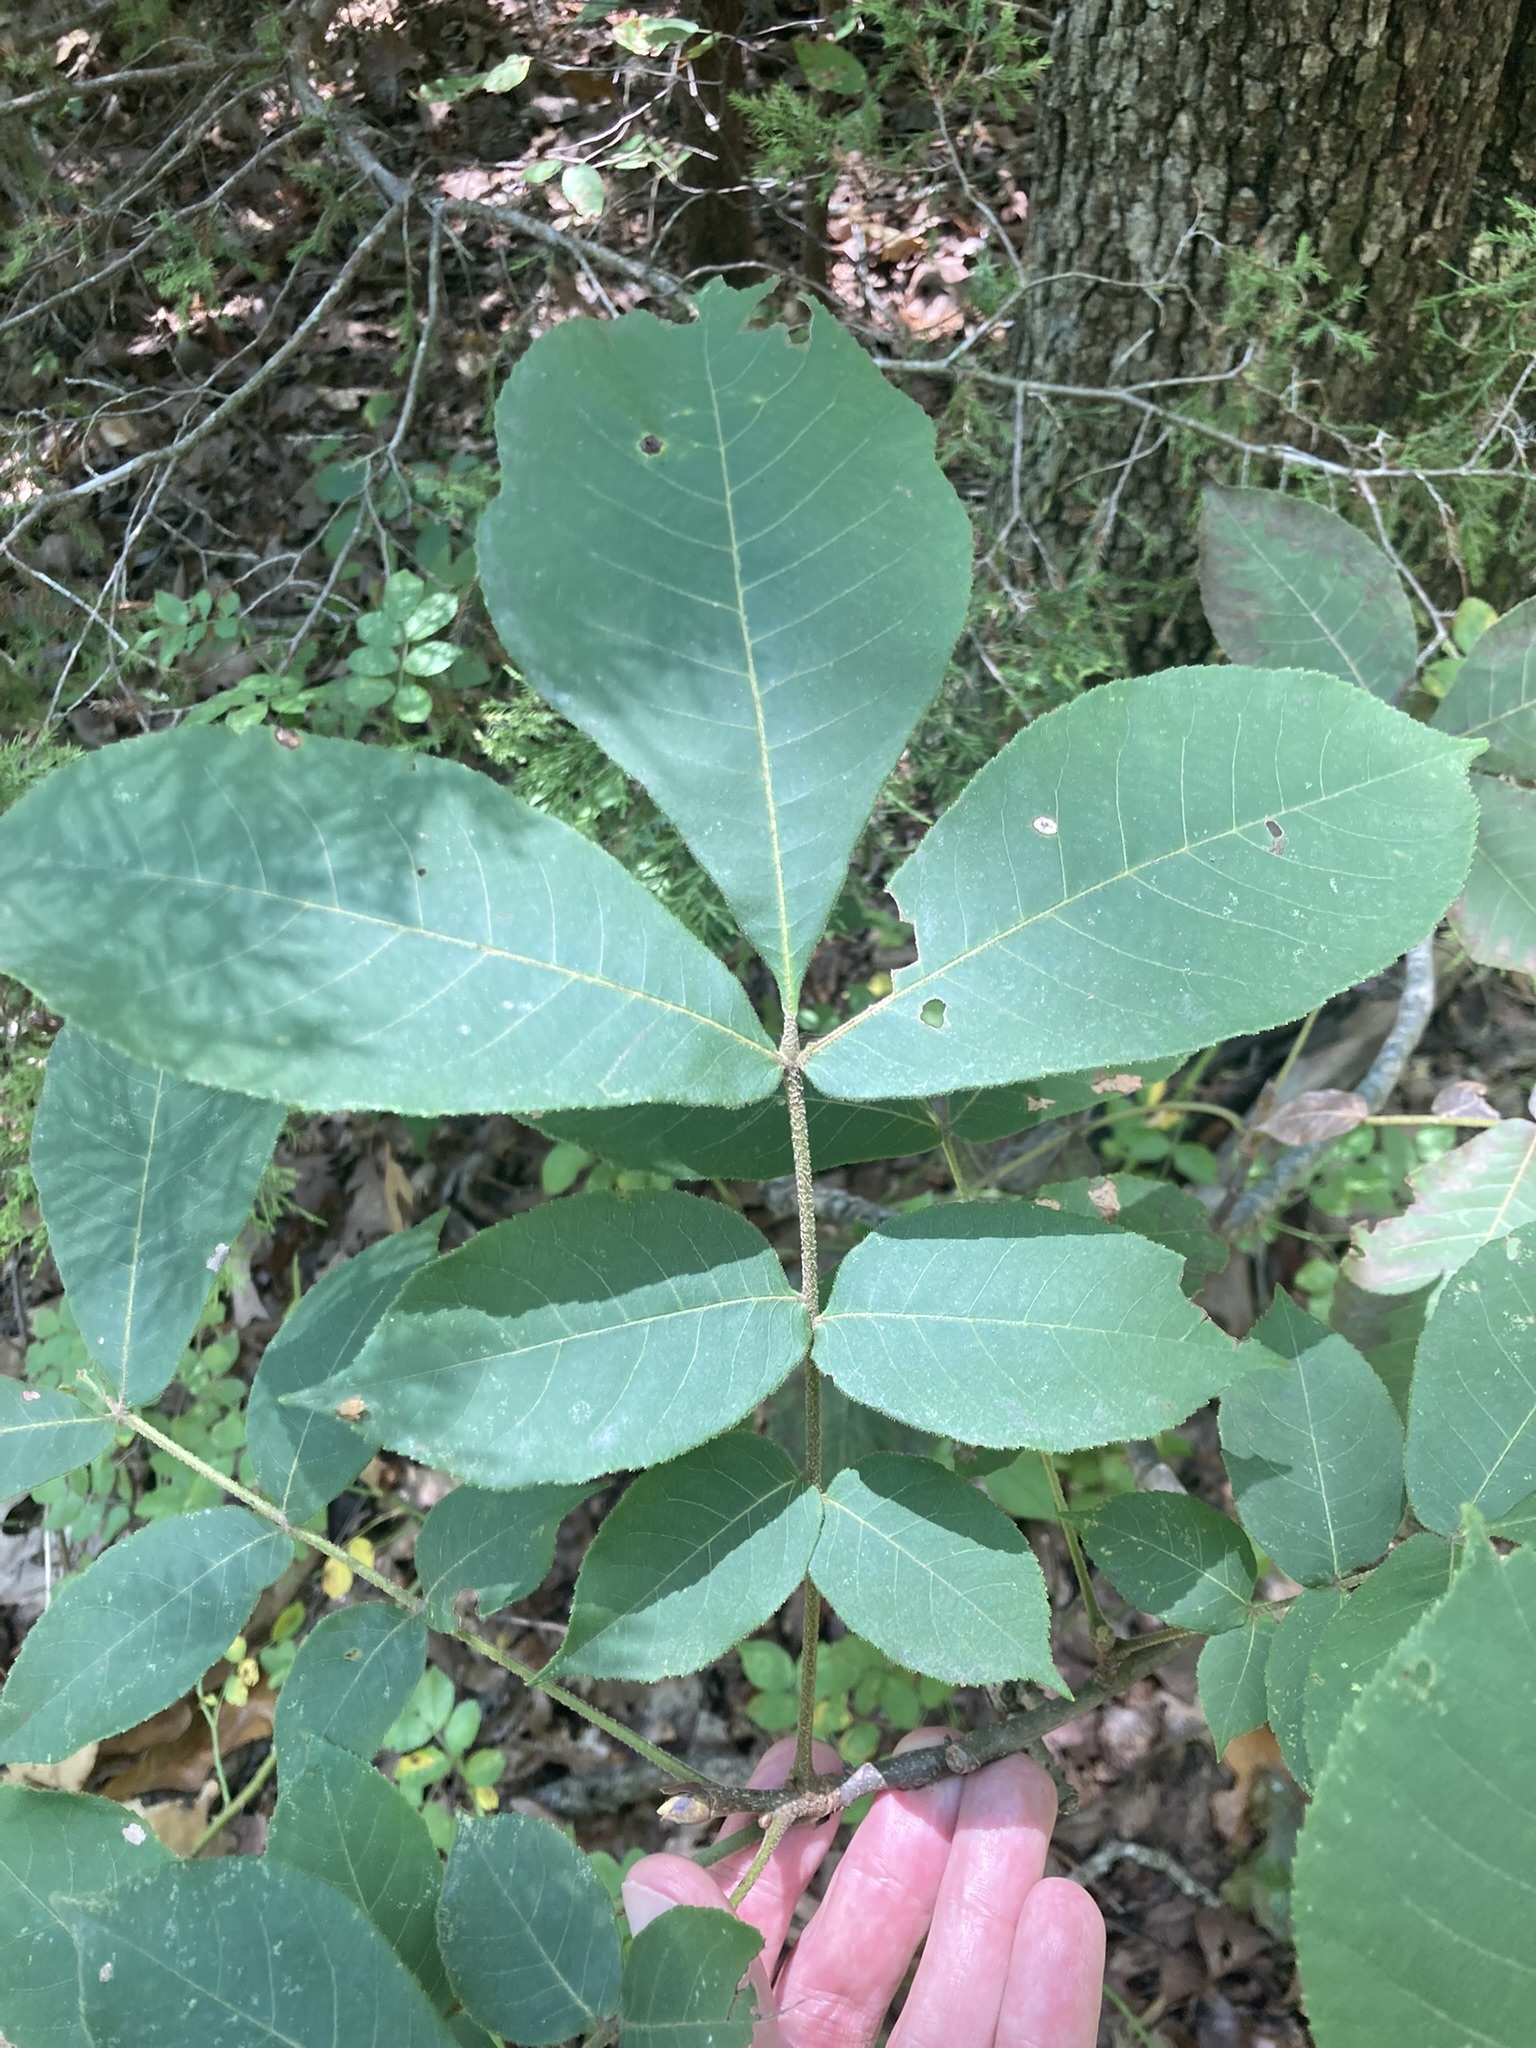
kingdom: Plantae
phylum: Tracheophyta
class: Magnoliopsida
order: Fagales
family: Juglandaceae
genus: Carya
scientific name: Carya alba
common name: Mockernut hickory
